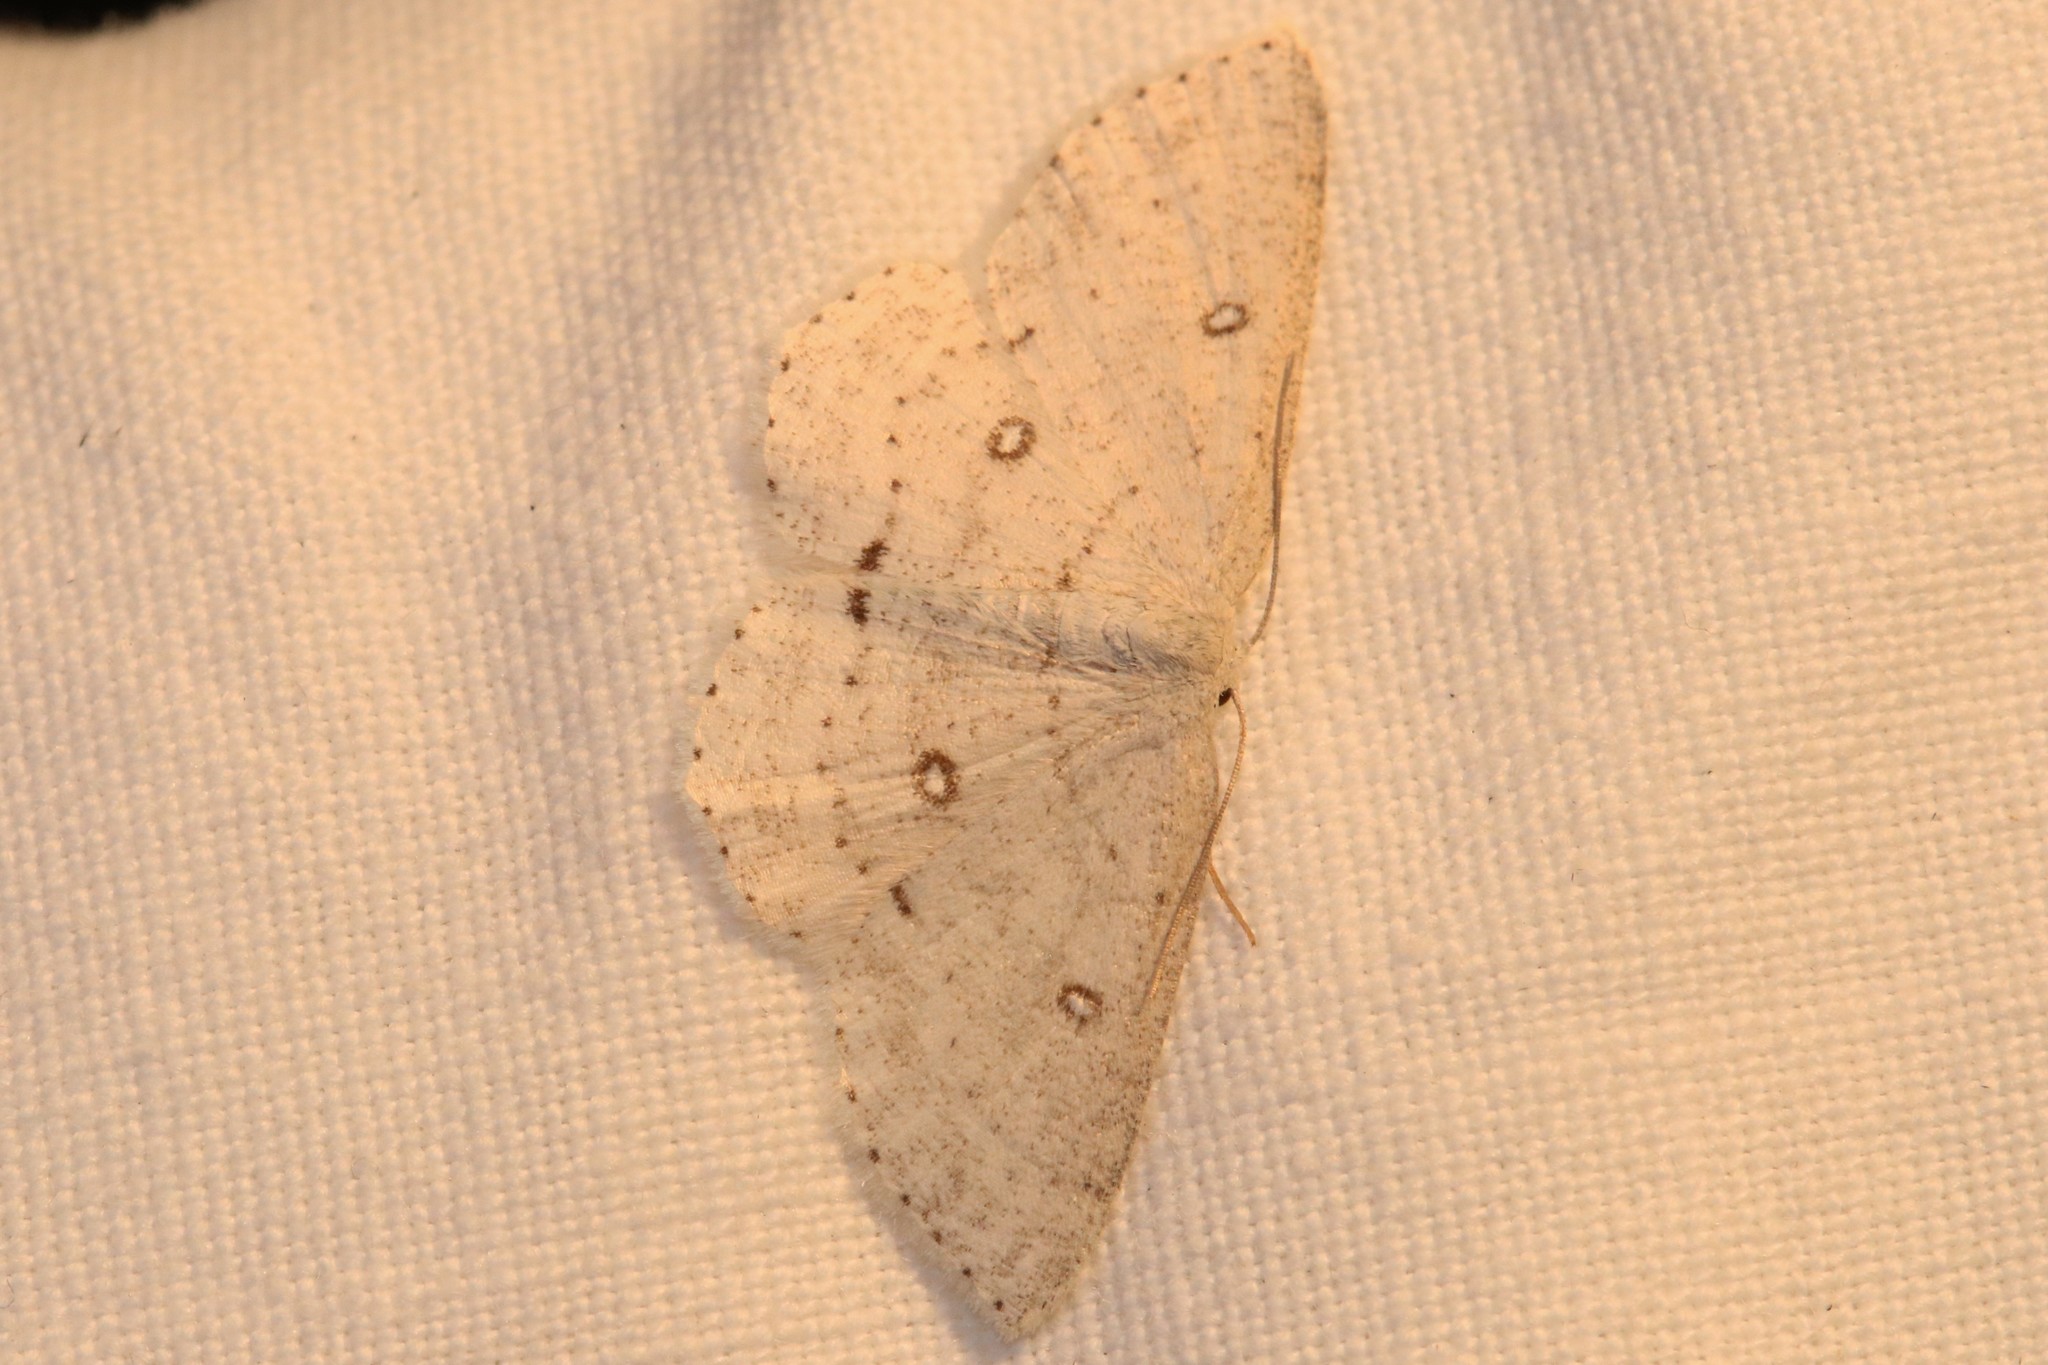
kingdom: Animalia
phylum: Arthropoda
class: Insecta
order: Lepidoptera
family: Geometridae
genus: Cyclophora
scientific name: Cyclophora pendulinaria
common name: Sweet fern geometer
